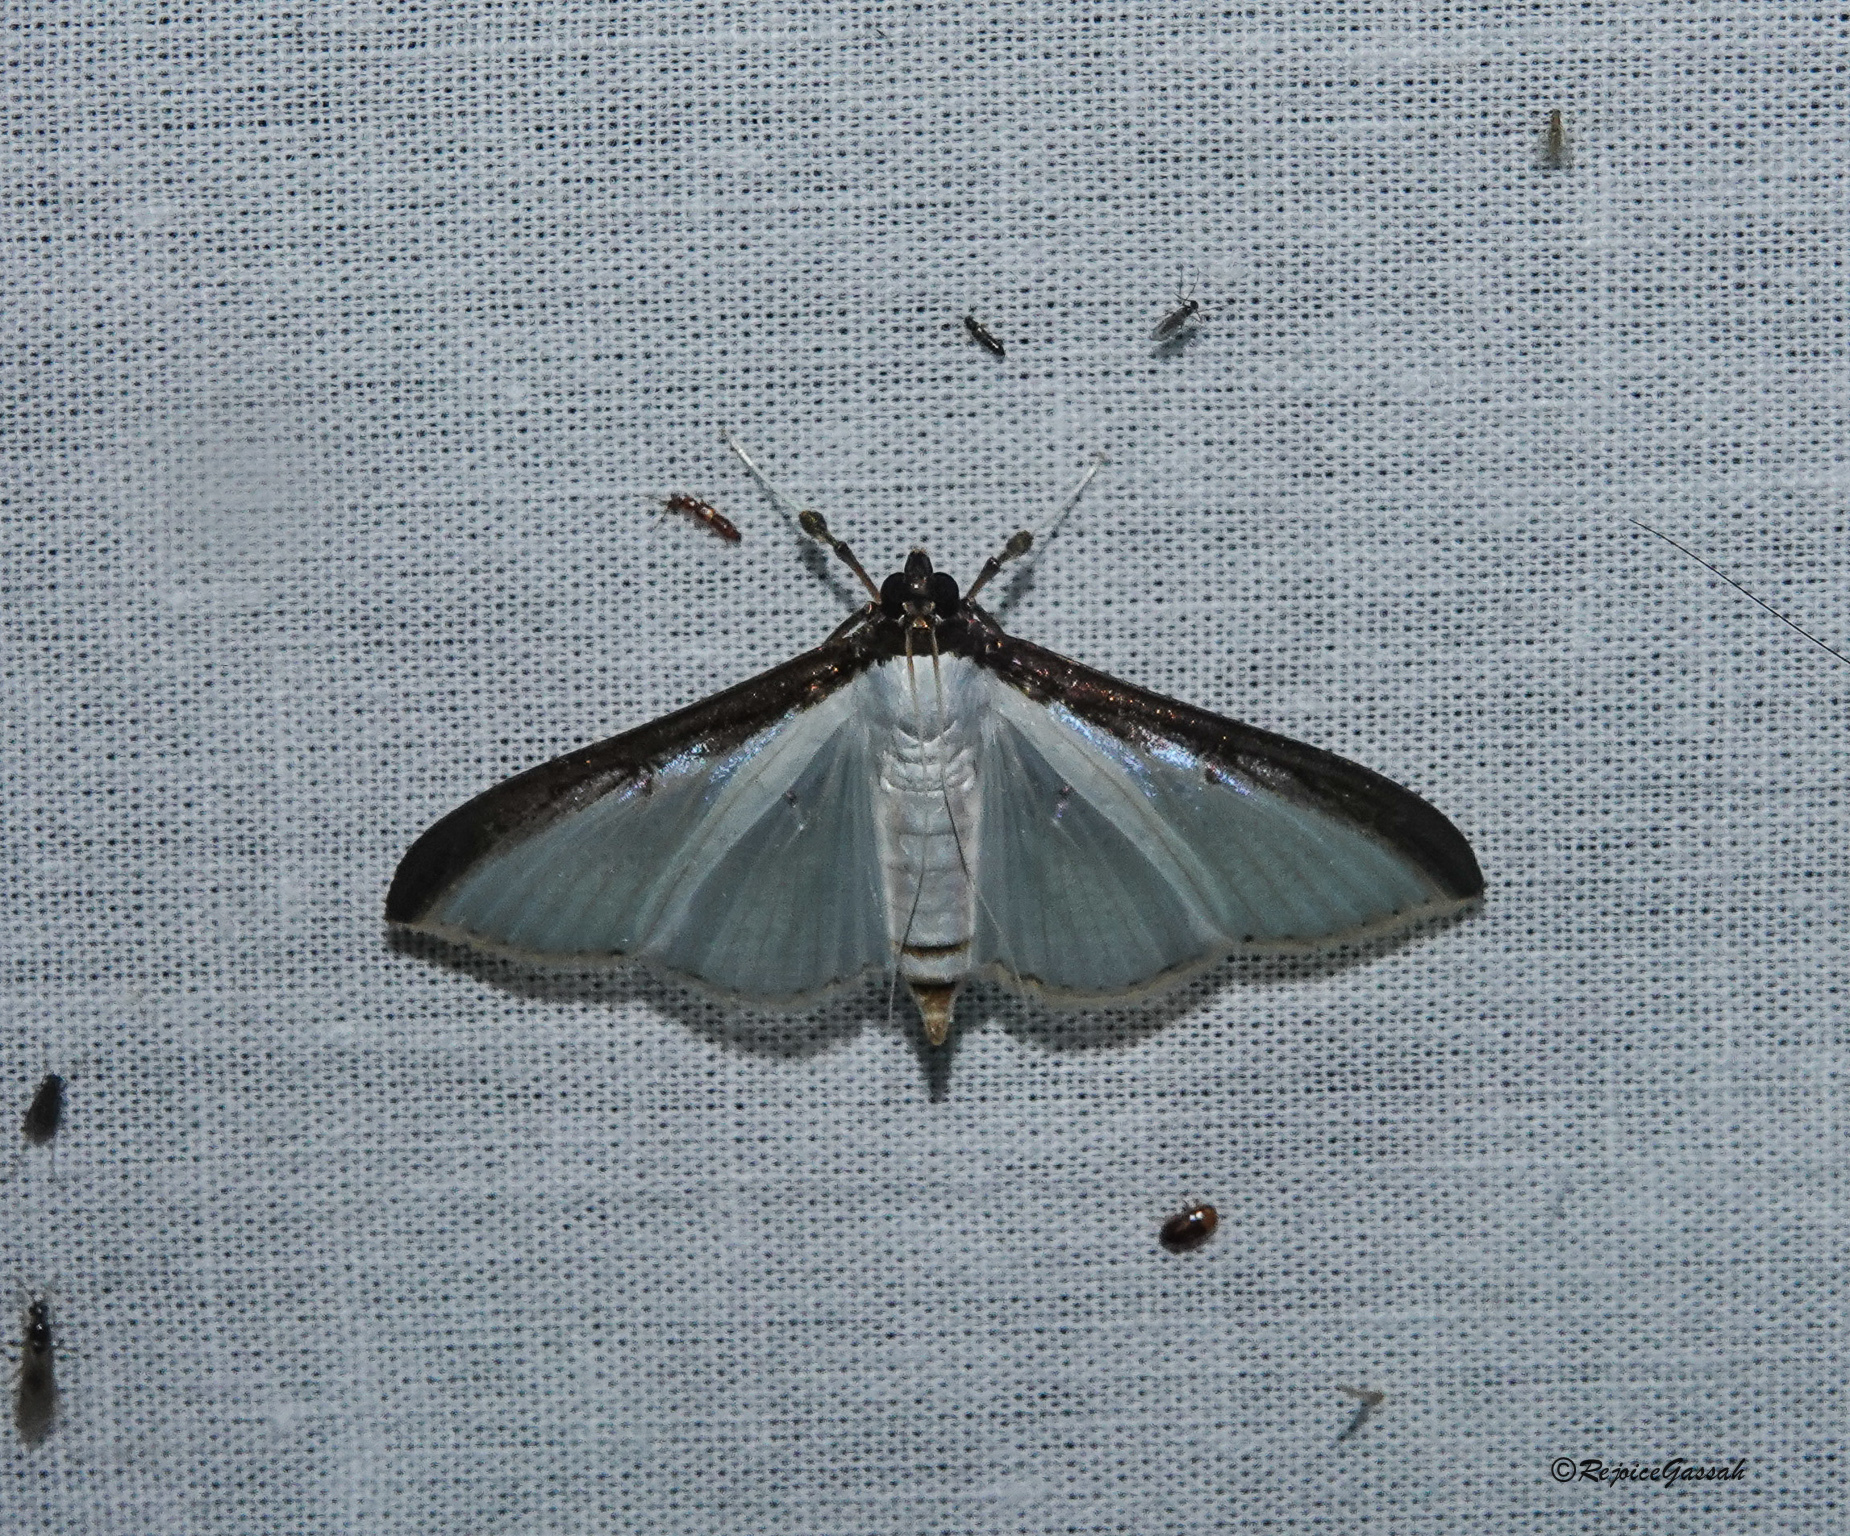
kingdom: Animalia
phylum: Arthropoda
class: Insecta
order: Lepidoptera
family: Crambidae
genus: Cydalima
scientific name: Cydalima laticostalis
